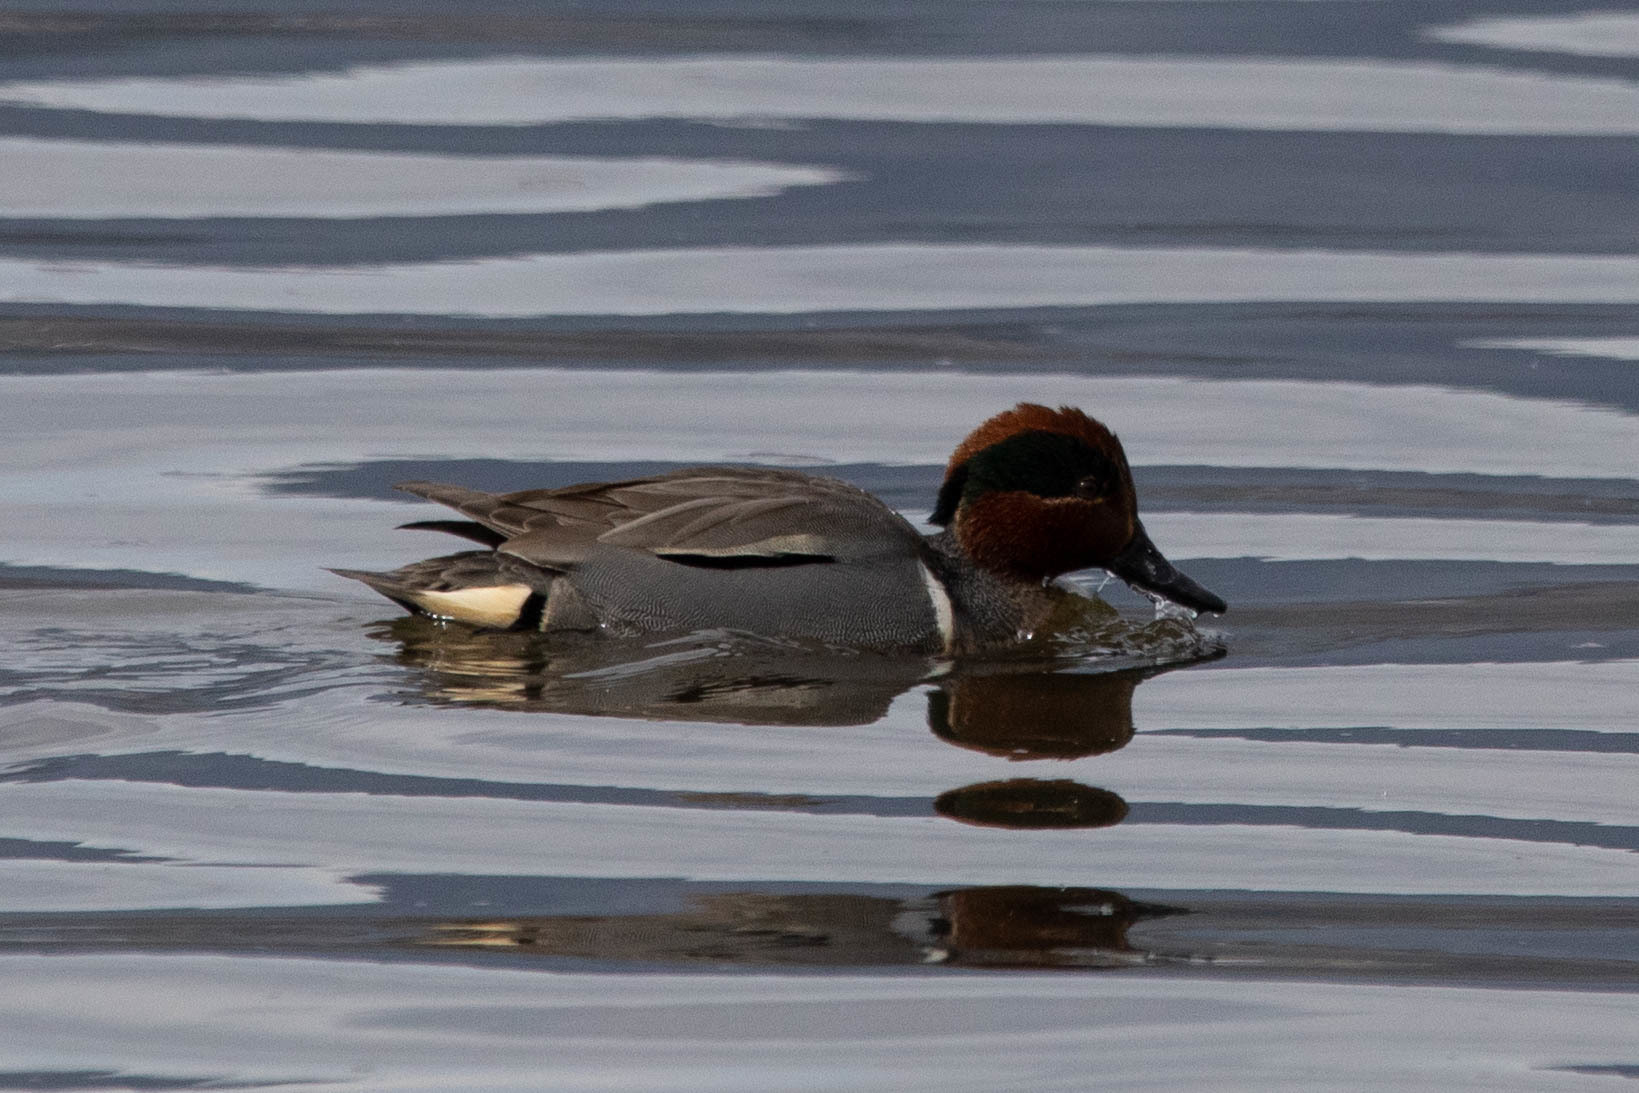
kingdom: Animalia
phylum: Chordata
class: Aves
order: Anseriformes
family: Anatidae
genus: Anas
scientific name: Anas carolinensis
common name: Green-winged teal
